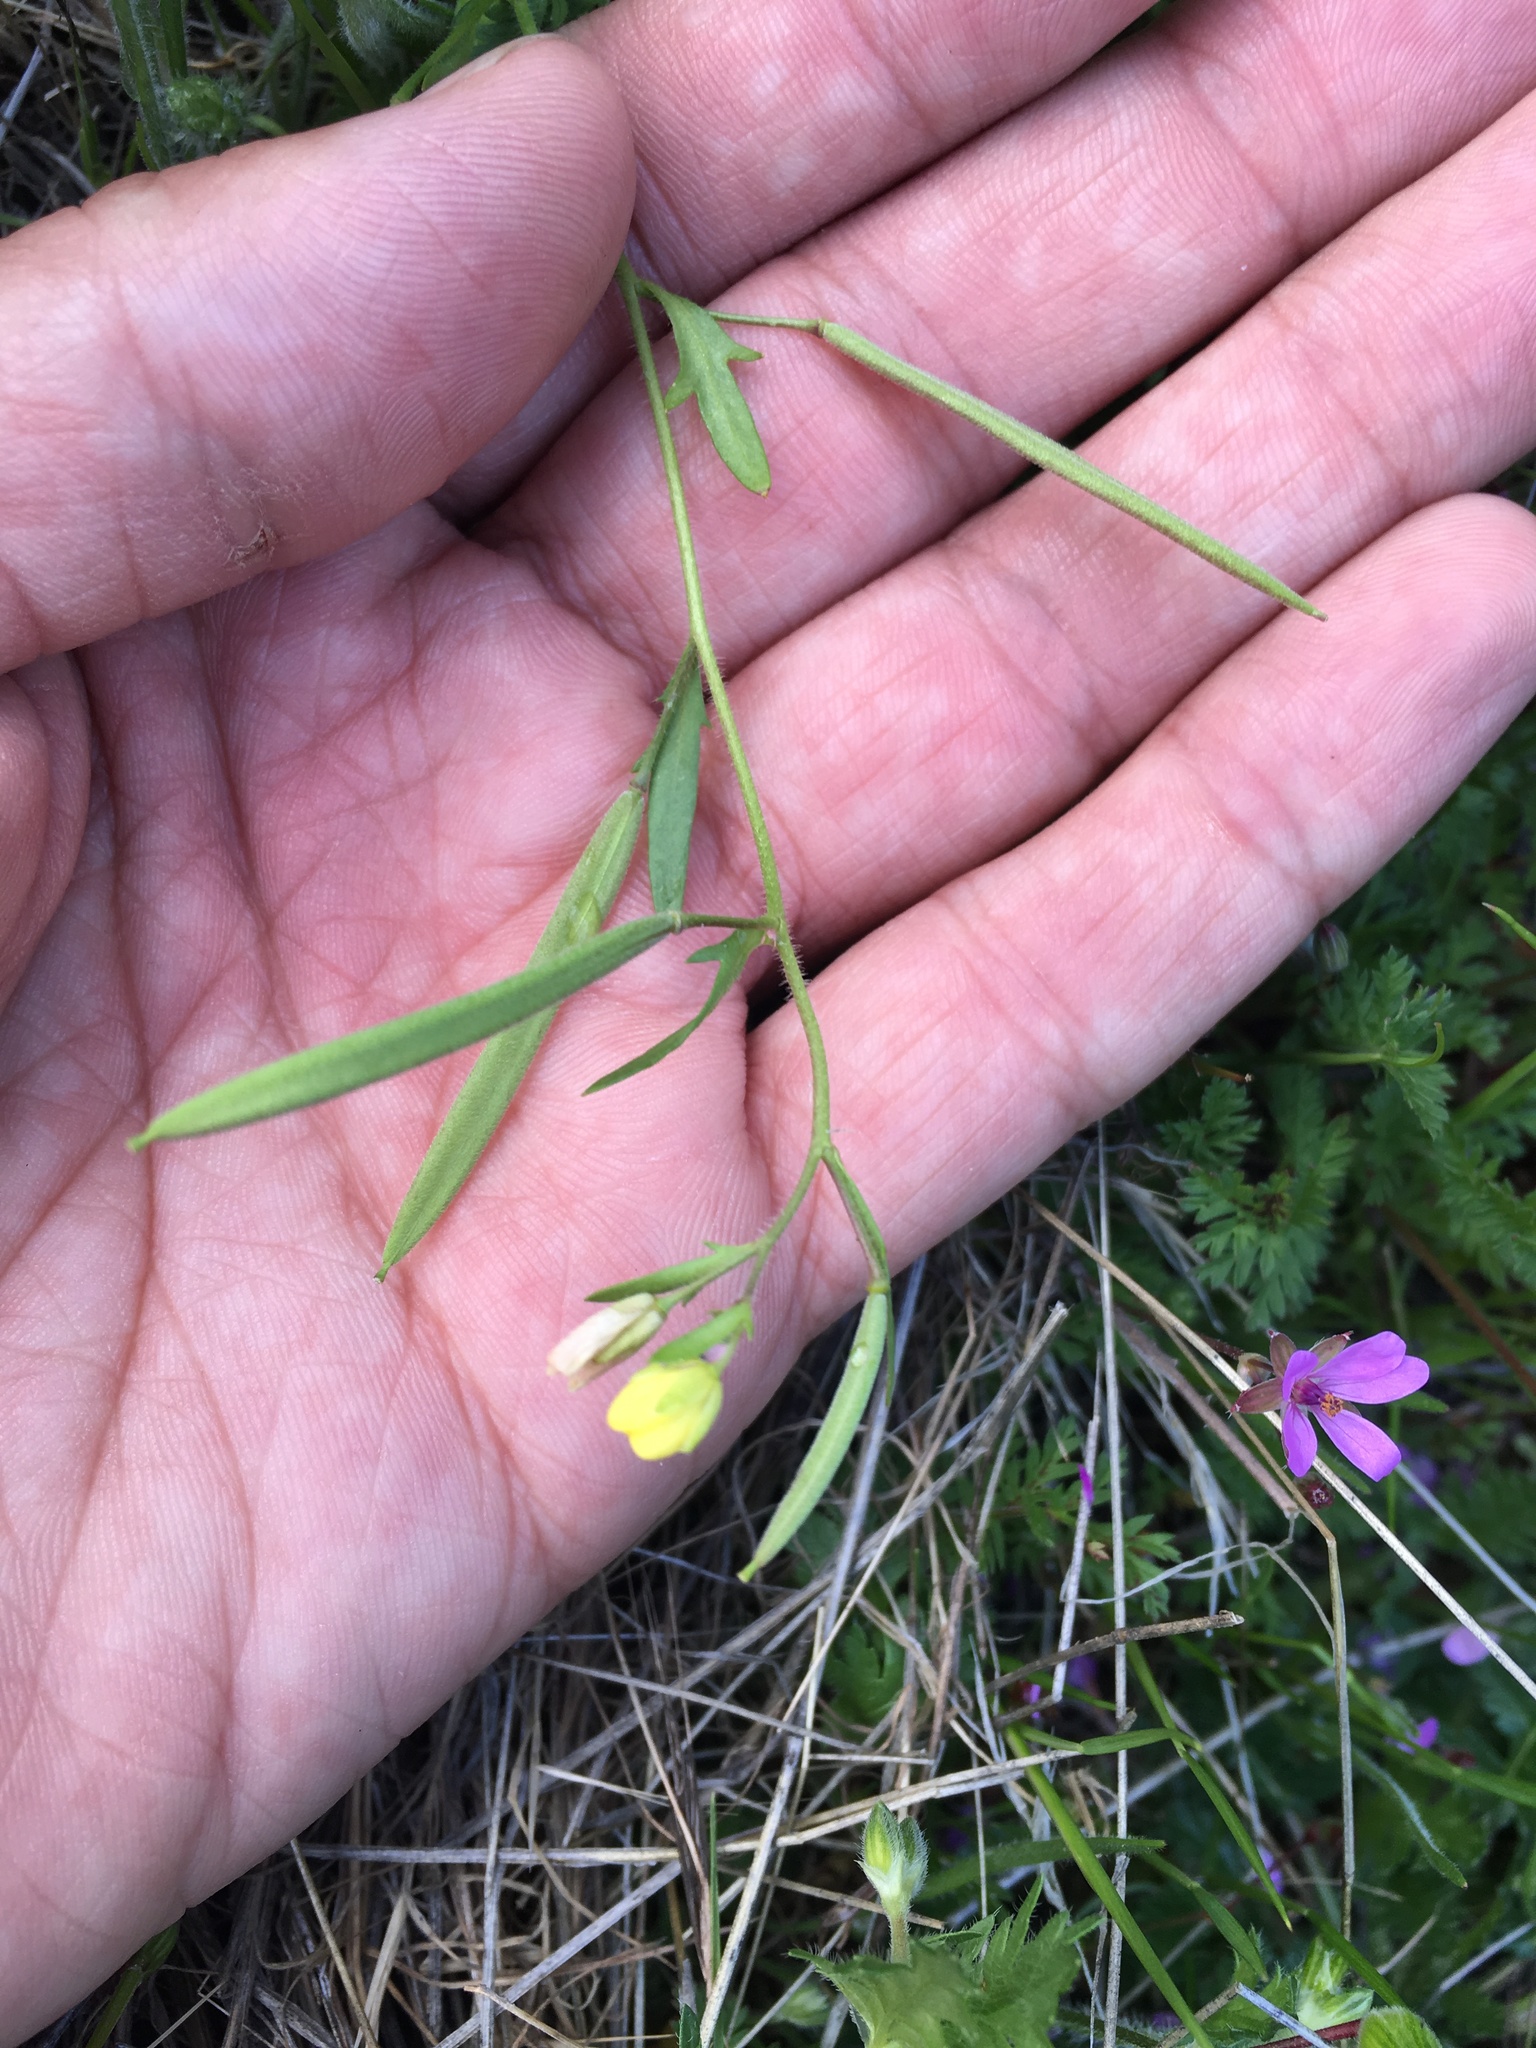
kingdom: Plantae
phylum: Tracheophyta
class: Magnoliopsida
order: Brassicales
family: Brassicaceae
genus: Tropidocarpum
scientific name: Tropidocarpum gracile
